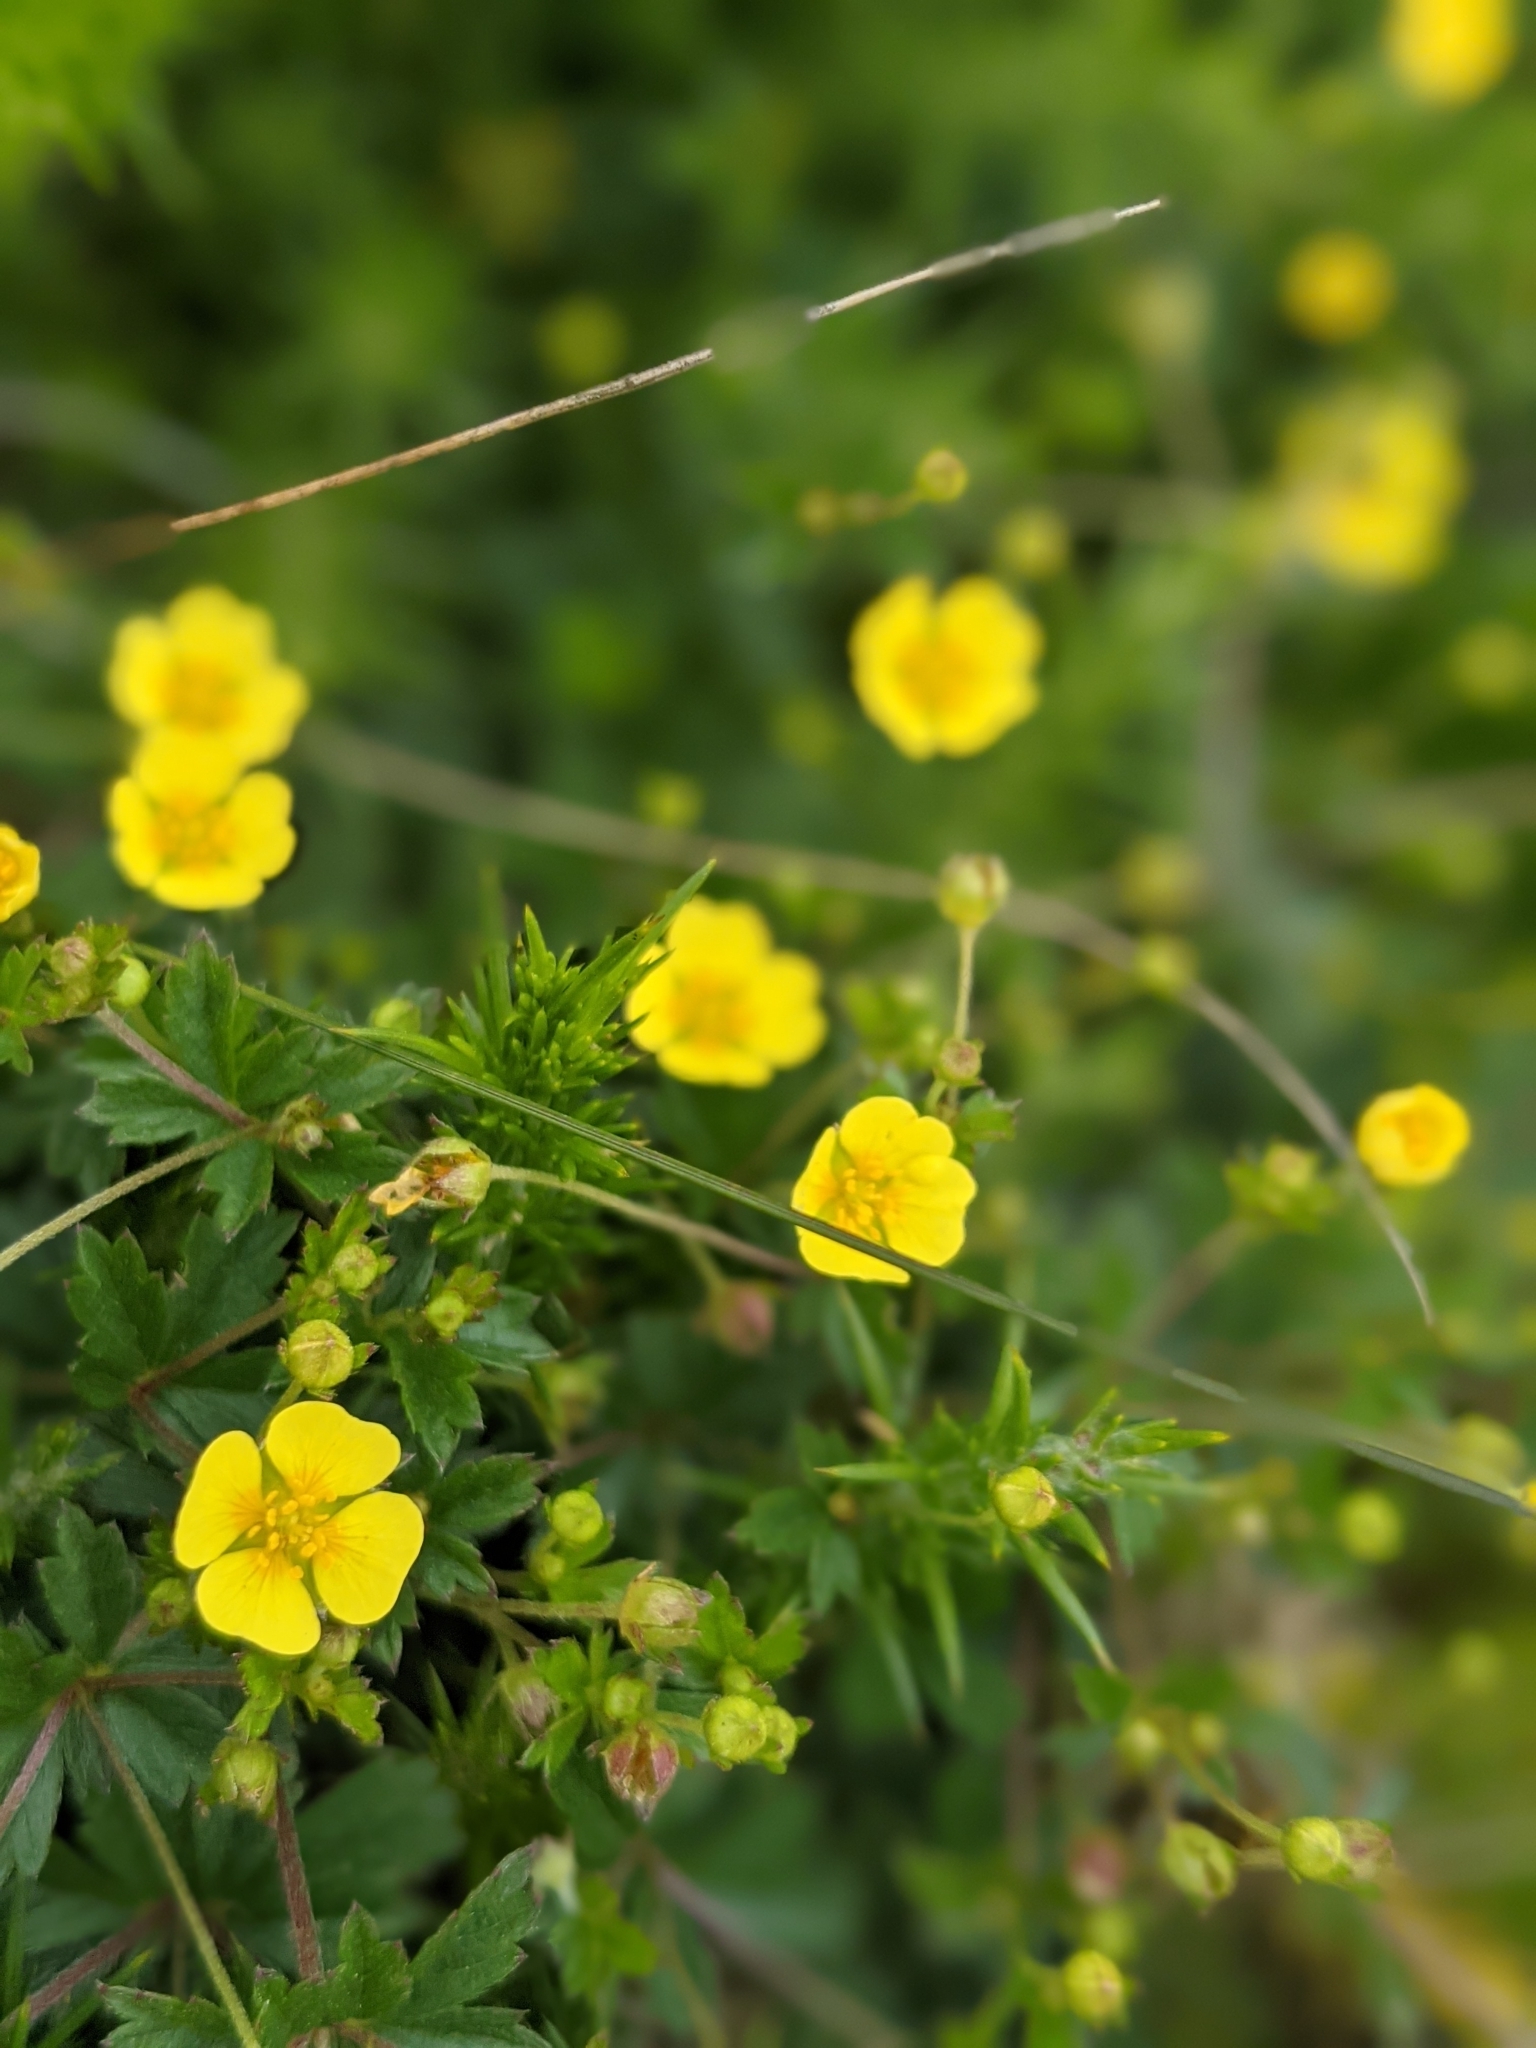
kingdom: Plantae
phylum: Tracheophyta
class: Magnoliopsida
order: Rosales
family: Rosaceae
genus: Potentilla
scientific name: Potentilla erecta
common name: Tormentil
